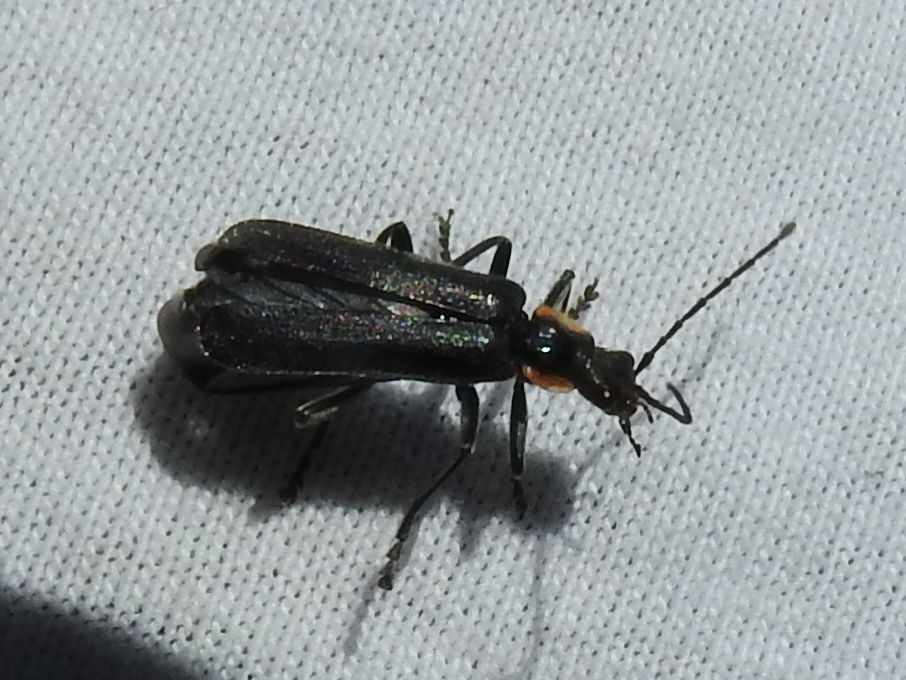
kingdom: Animalia
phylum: Arthropoda
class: Insecta
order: Coleoptera
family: Cantharidae
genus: Cantharis
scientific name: Cantharis obscura
